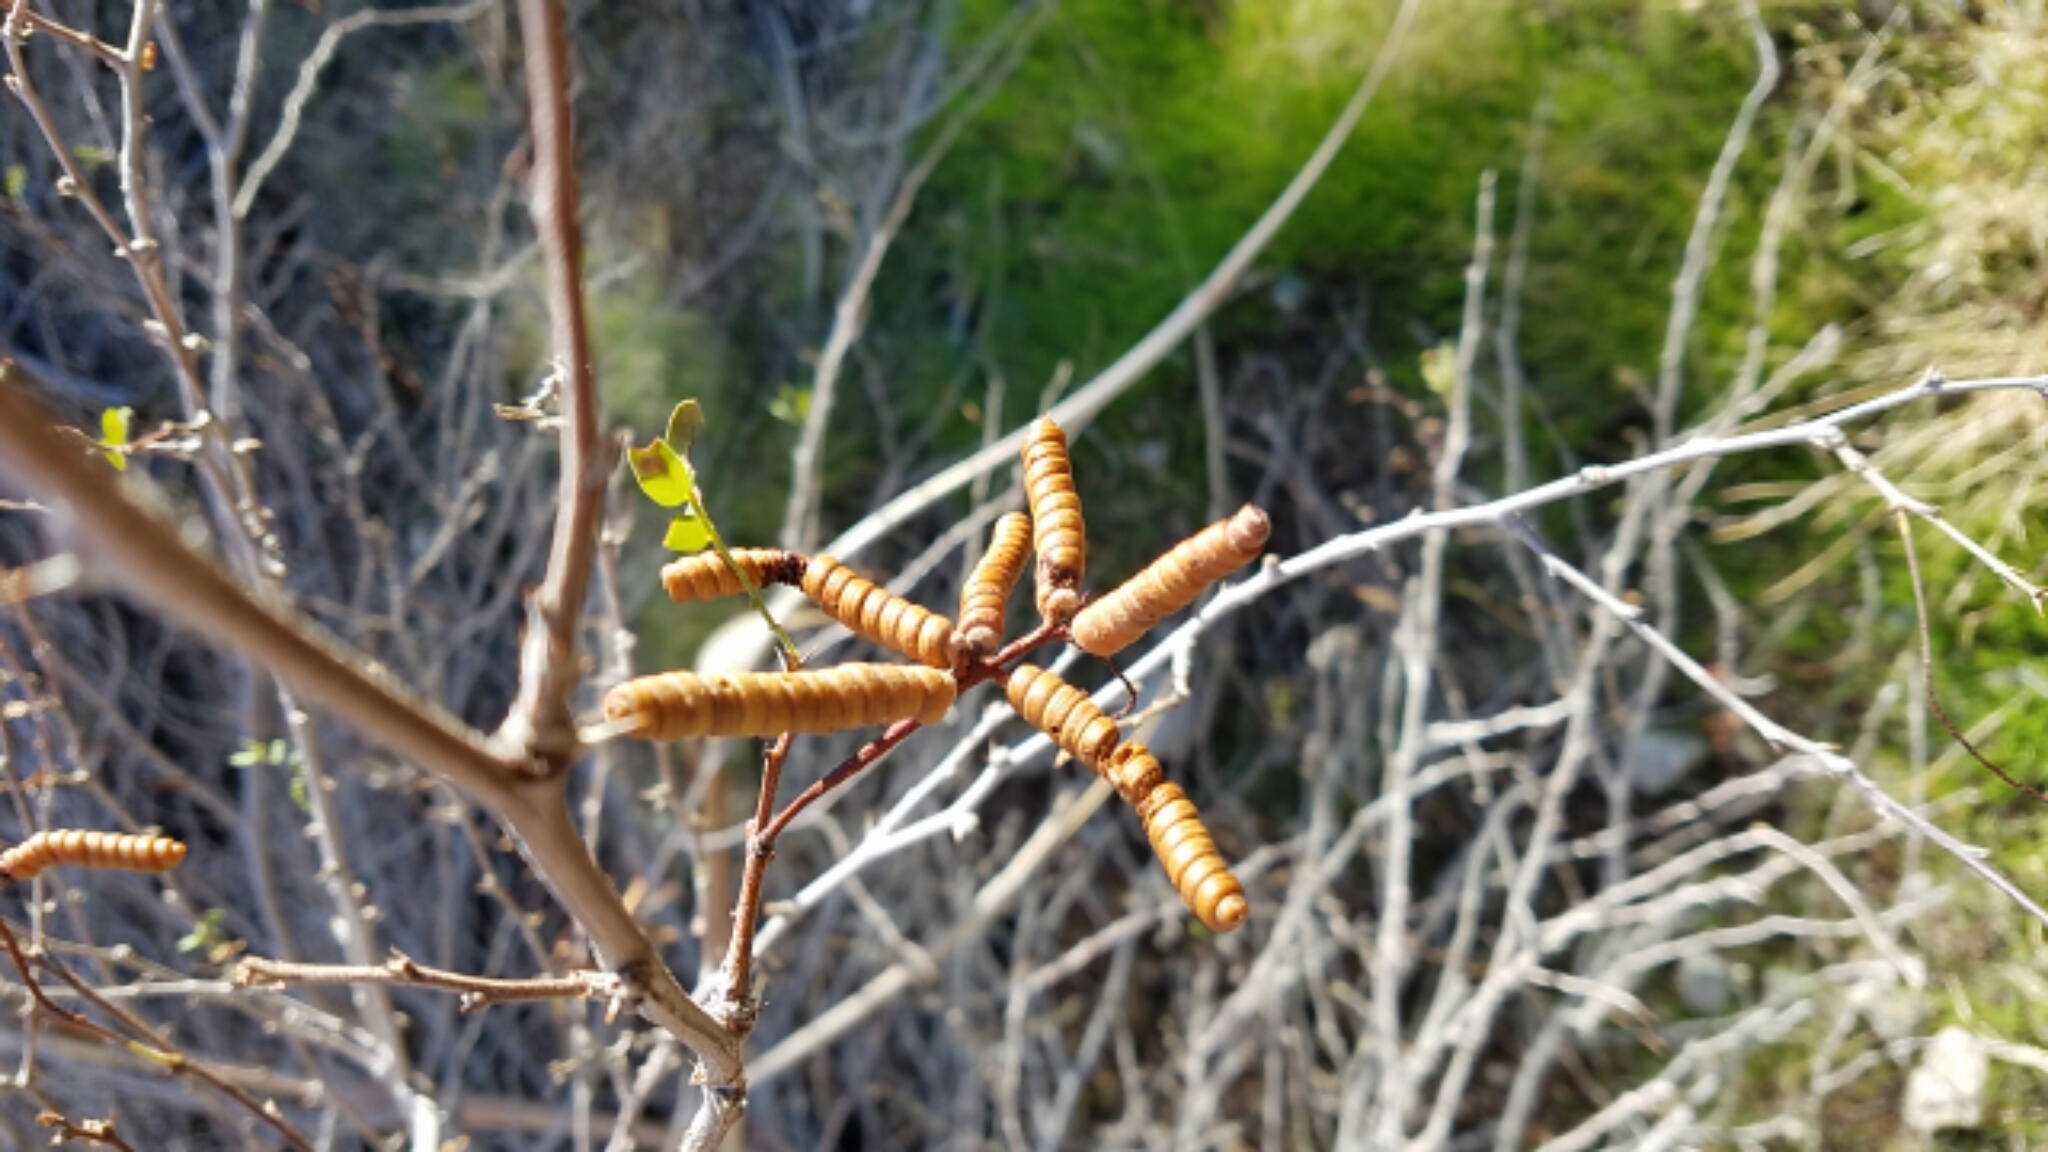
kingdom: Plantae
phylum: Tracheophyta
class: Magnoliopsida
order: Fabales
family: Fabaceae
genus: Prosopis
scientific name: Prosopis pubescens
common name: Screw-bean
